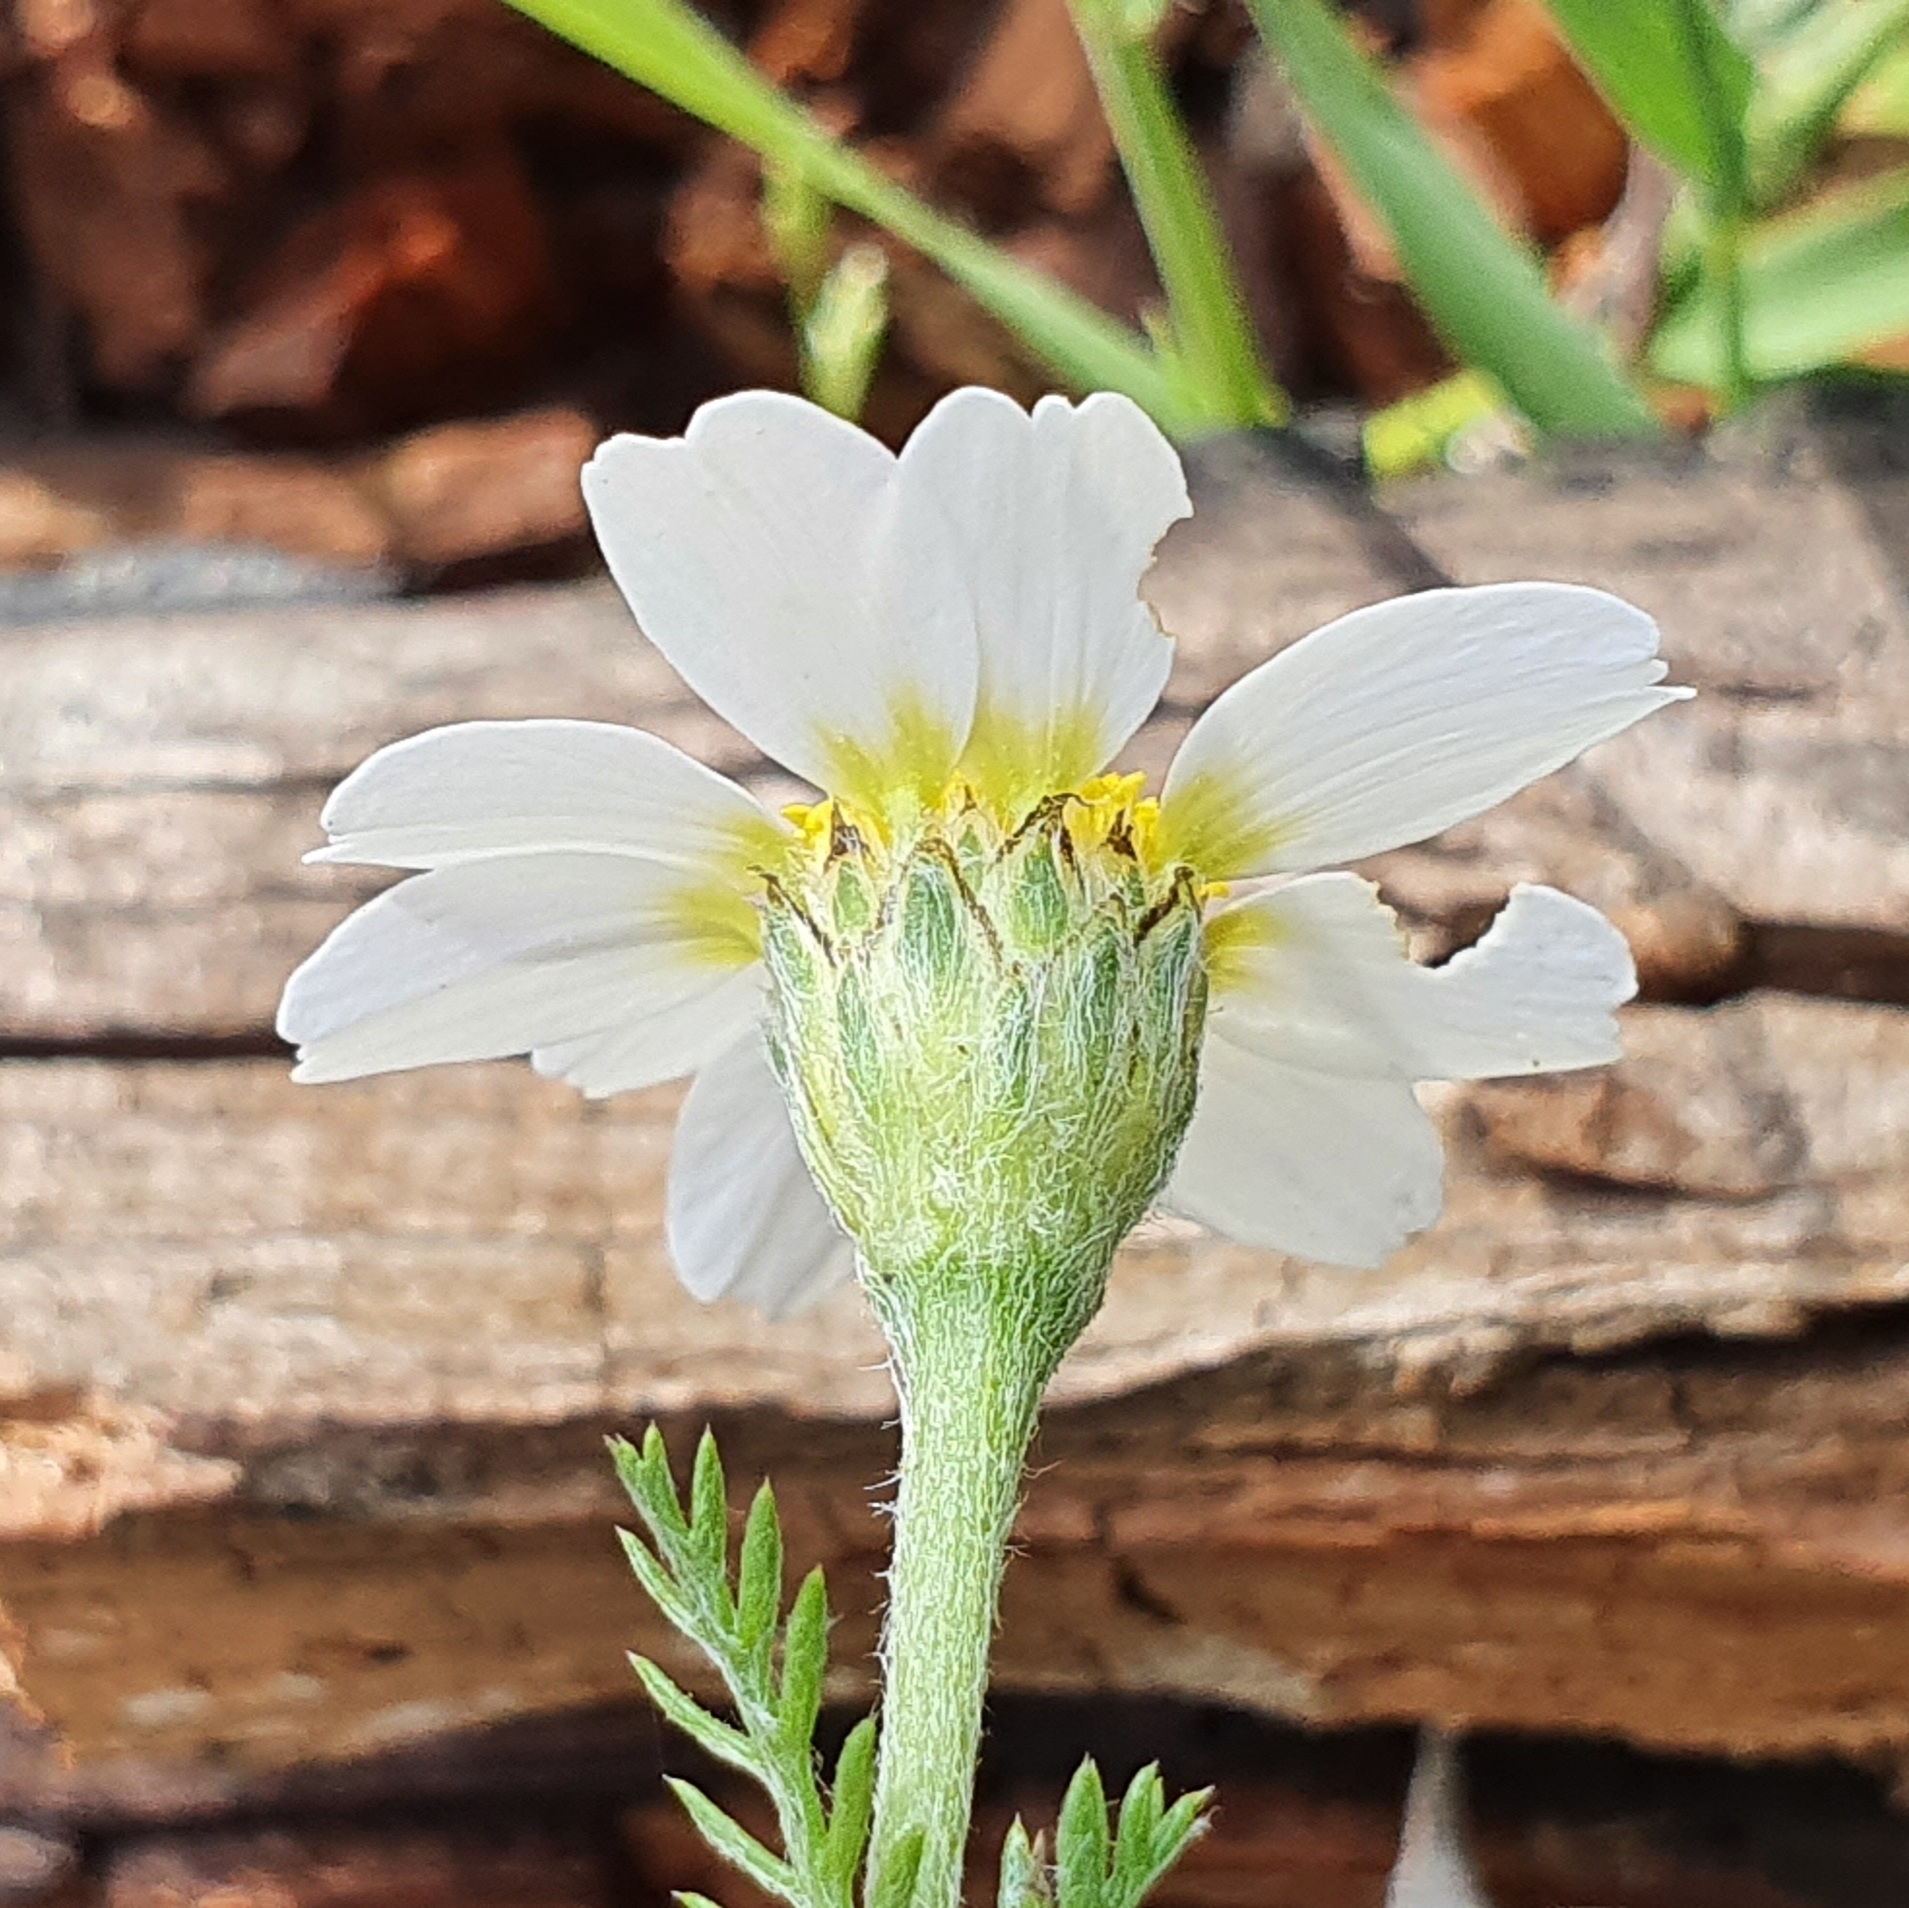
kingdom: Plantae
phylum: Tracheophyta
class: Magnoliopsida
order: Asterales
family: Asteraceae
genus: Anacyclus
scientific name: Anacyclus clavatus
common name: Whitebuttons
